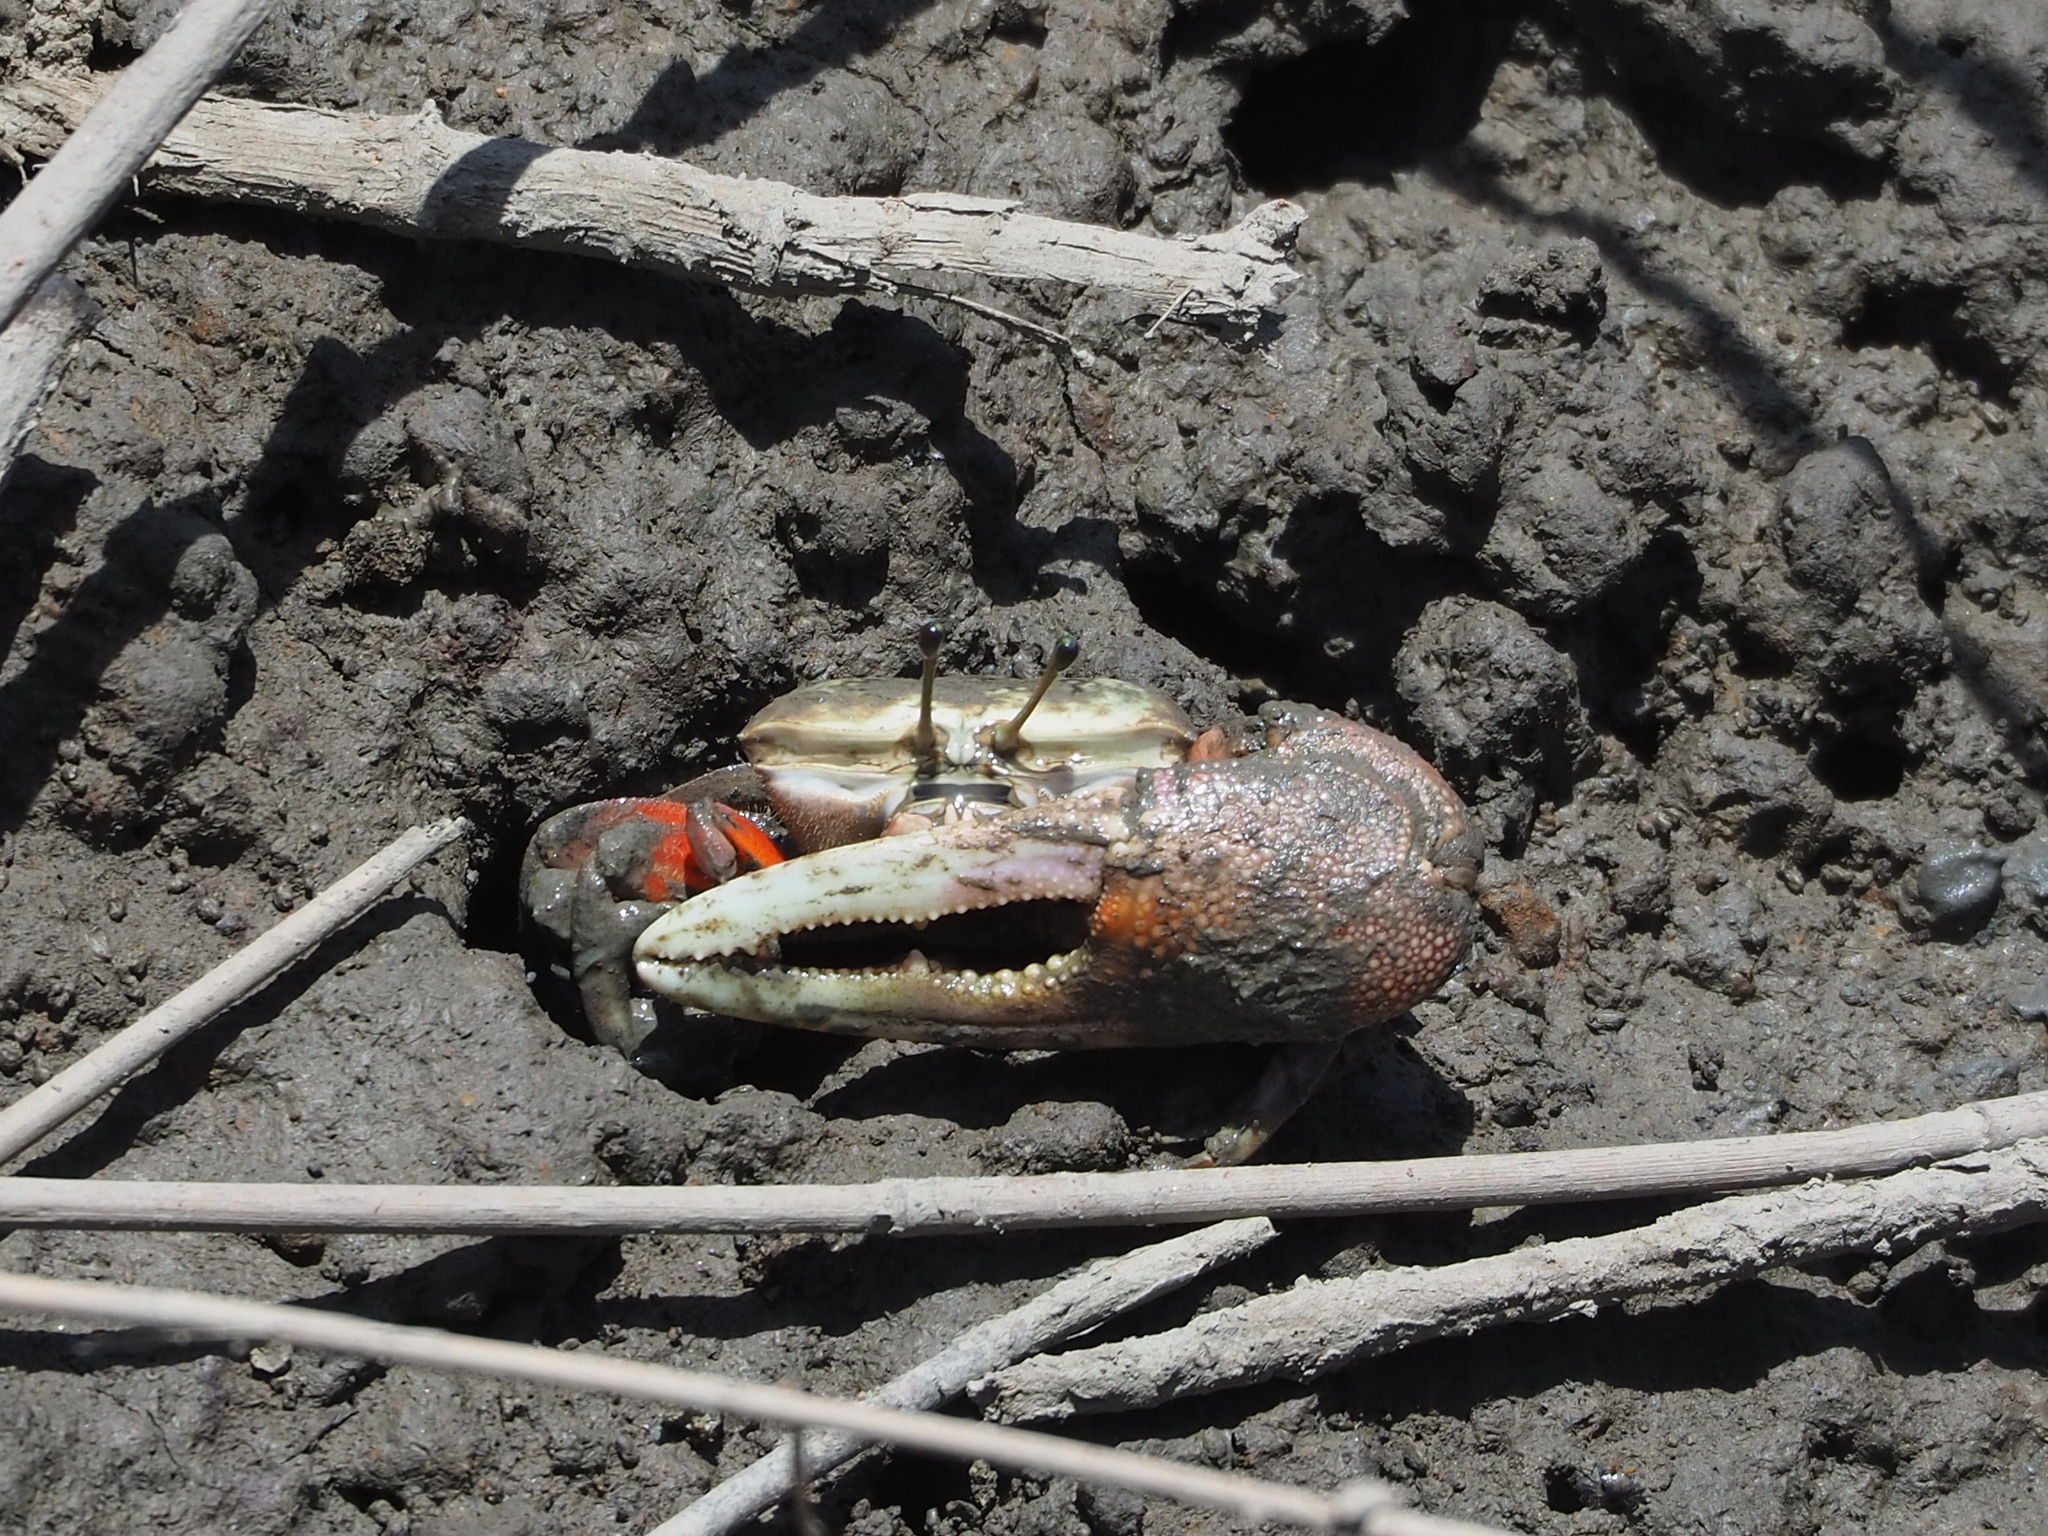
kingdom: Animalia
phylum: Arthropoda
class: Malacostraca
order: Decapoda
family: Ocypodidae
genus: Tubuca
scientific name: Tubuca arcuata
